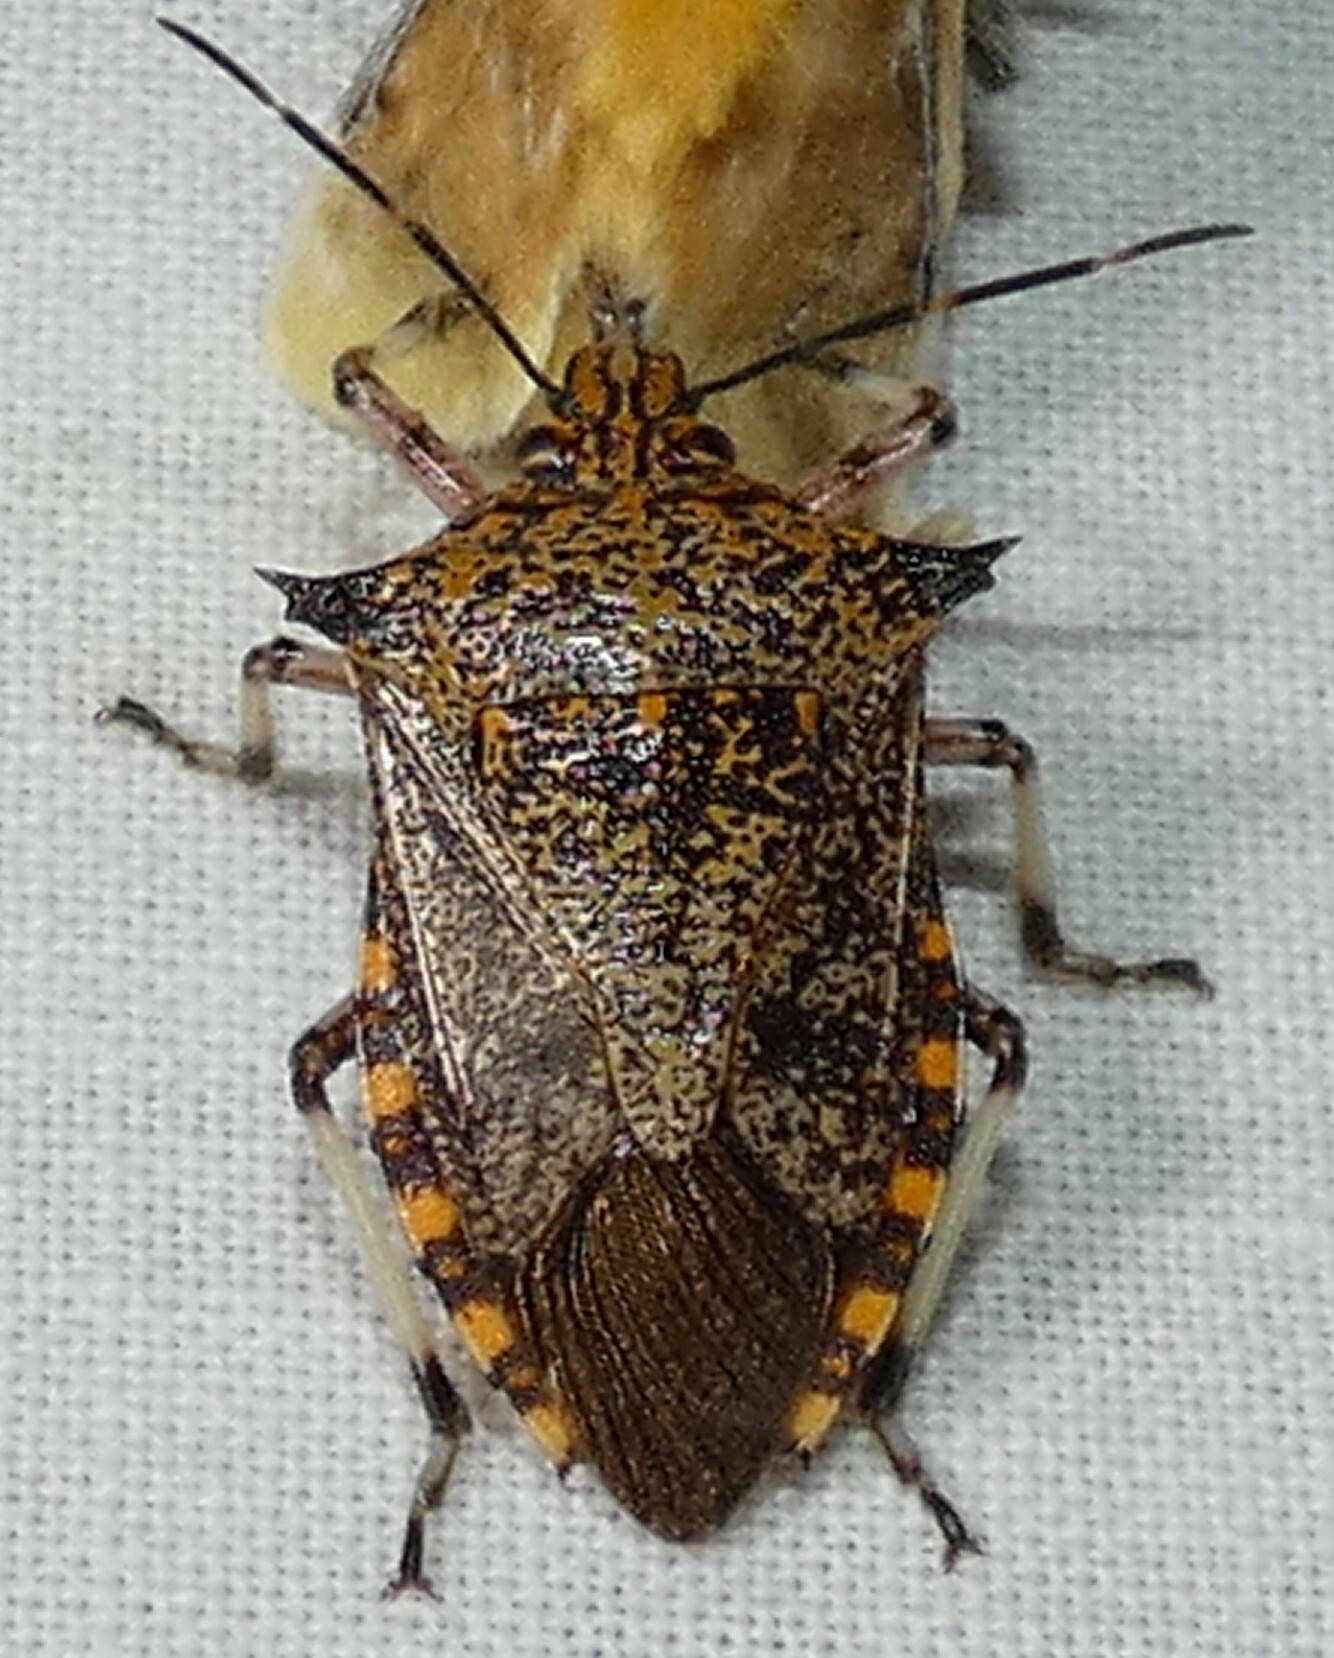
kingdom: Animalia
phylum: Arthropoda
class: Insecta
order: Hemiptera
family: Pentatomidae
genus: Alcaeorrhynchus
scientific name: Alcaeorrhynchus grandis
